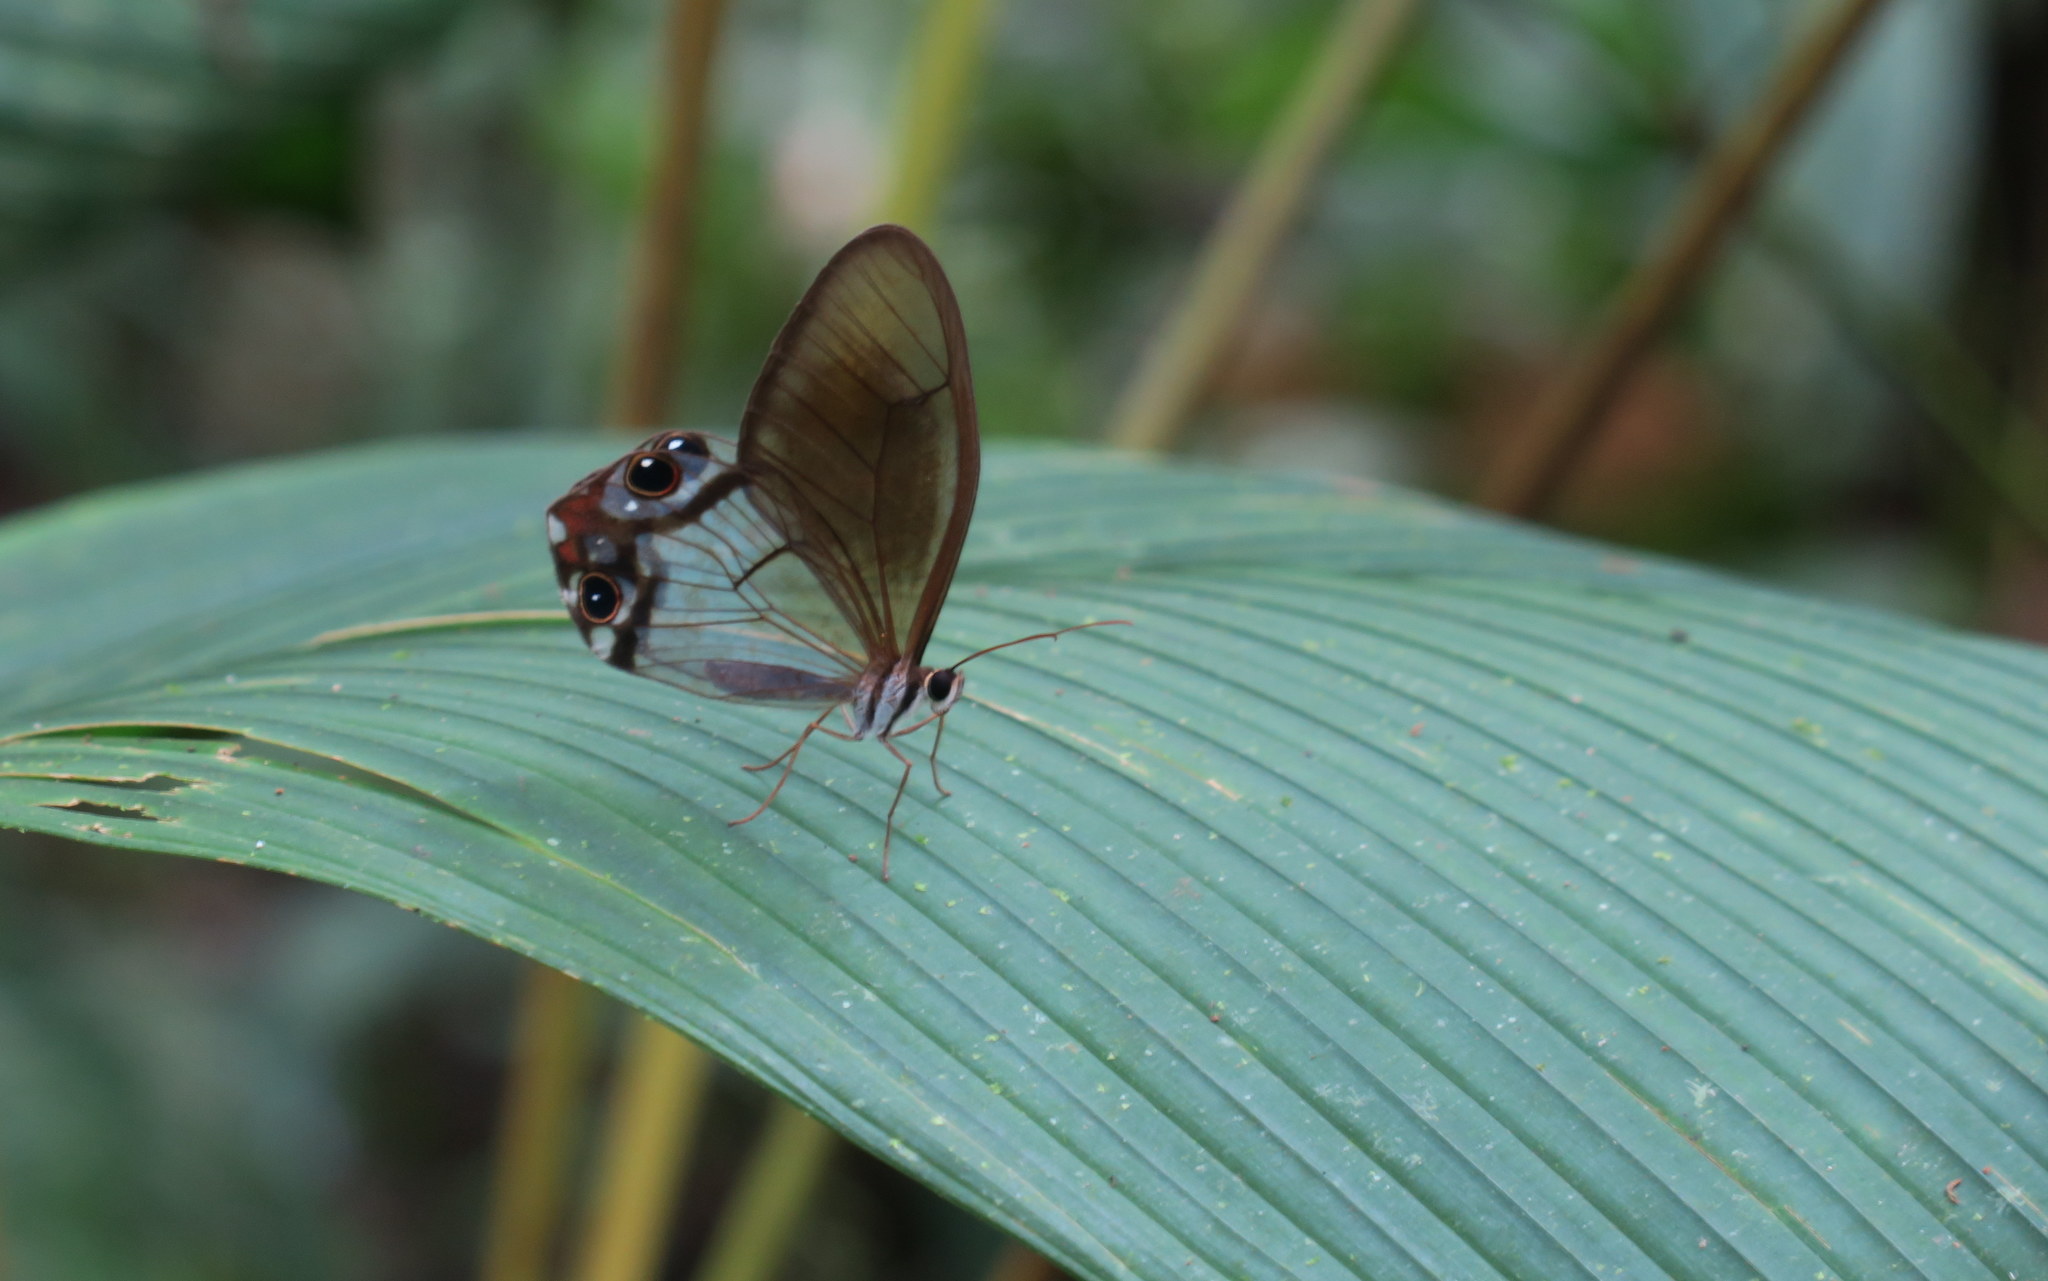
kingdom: Animalia
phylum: Arthropoda
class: Insecta
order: Lepidoptera
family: Nymphalidae
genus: Haetera
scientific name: Haetera macleannania
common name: Reddish clearwing-satyr
